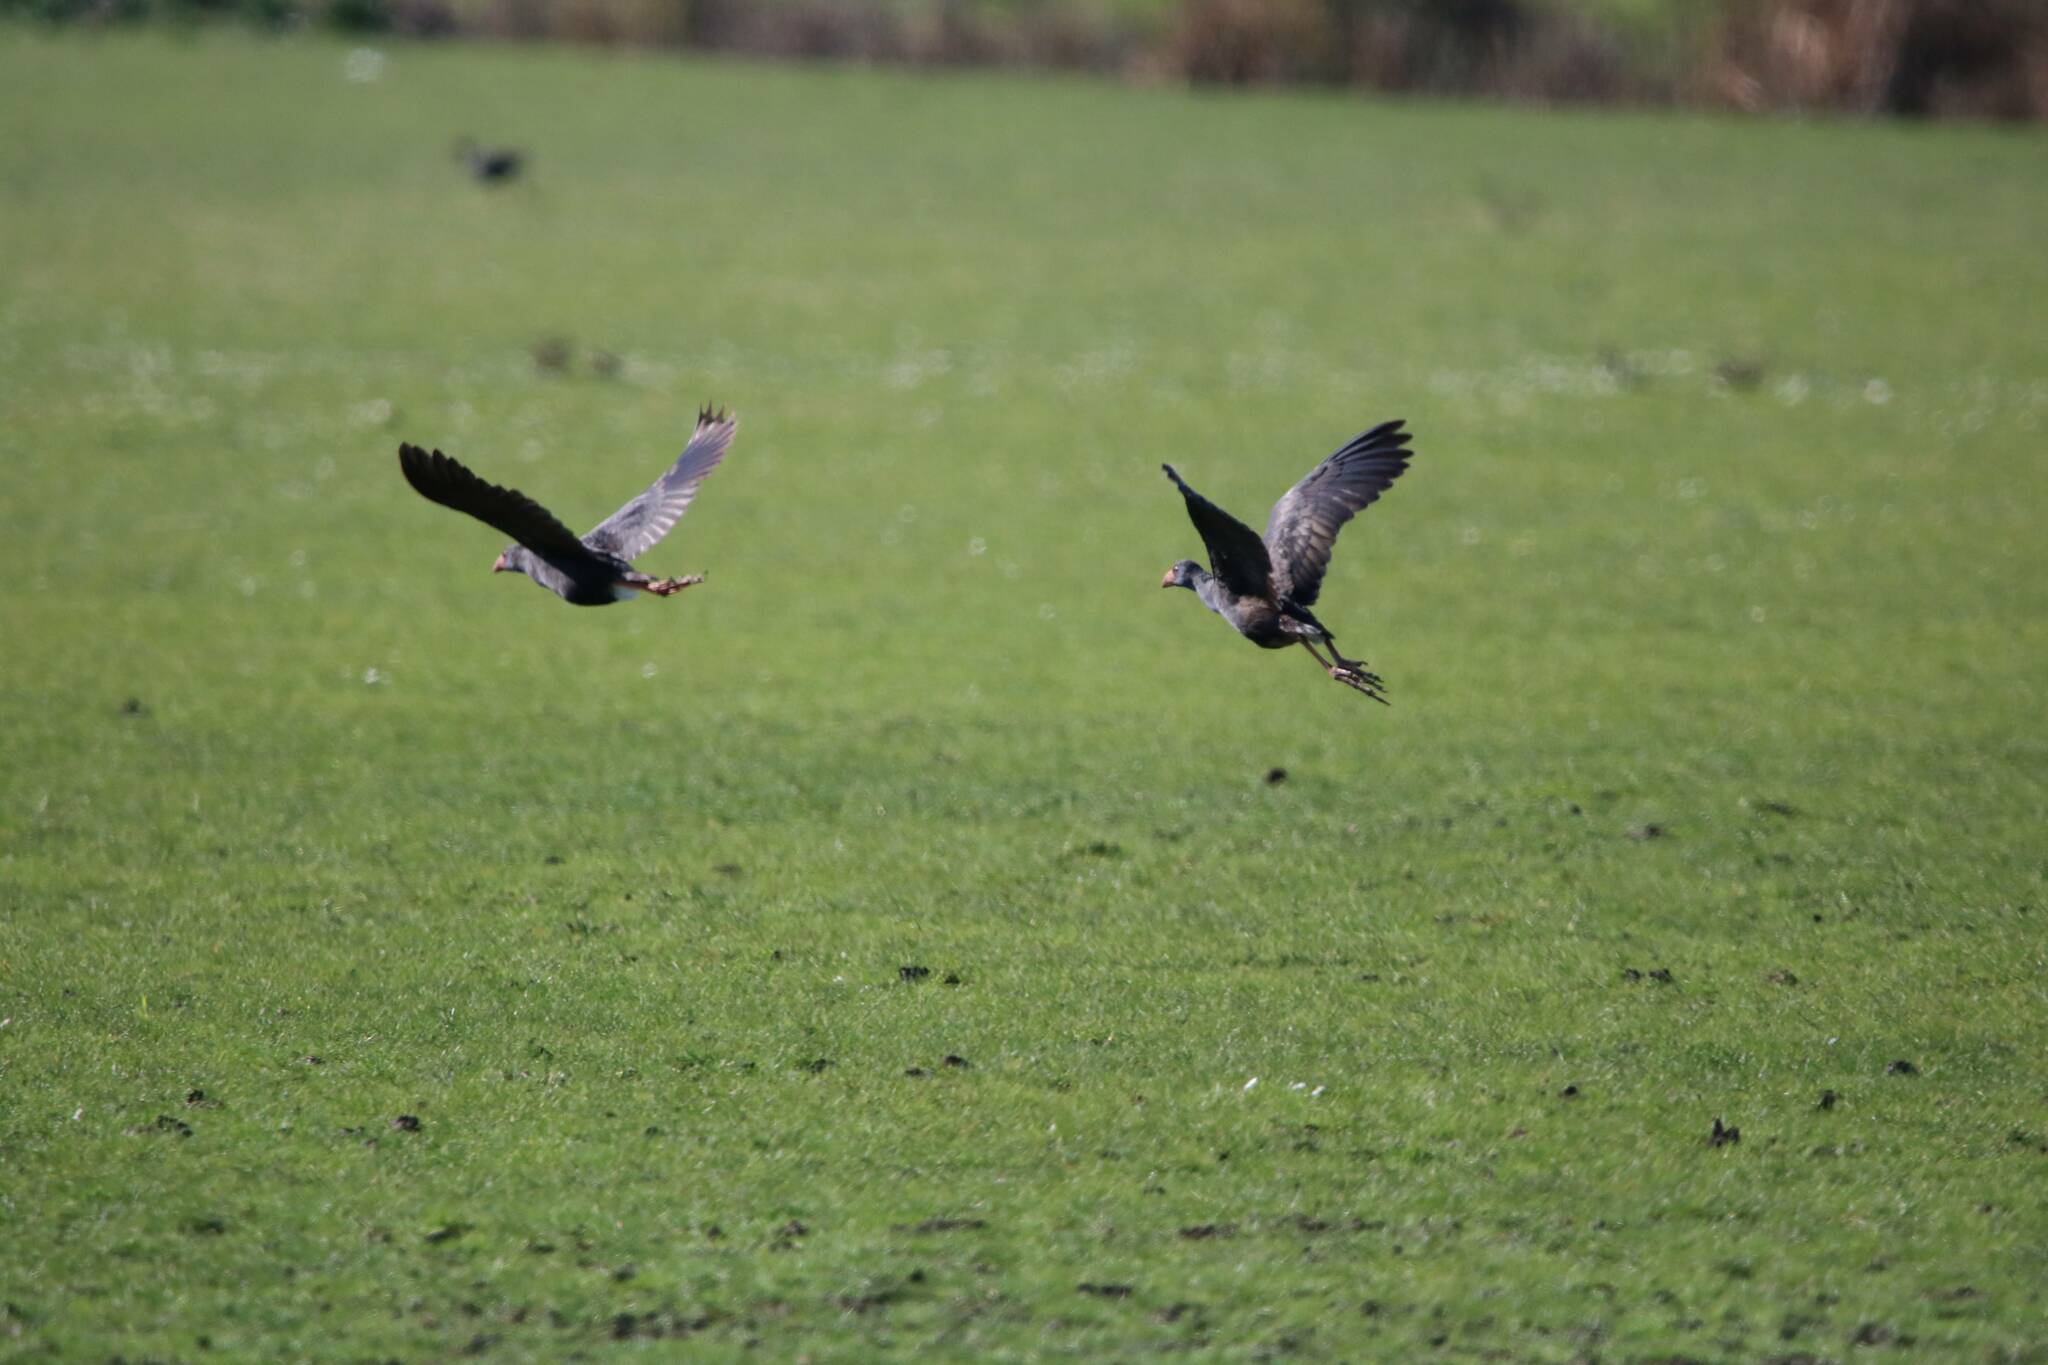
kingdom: Animalia
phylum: Chordata
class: Aves
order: Gruiformes
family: Rallidae
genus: Porphyrio
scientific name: Porphyrio porphyrio
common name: Purple swamphen
